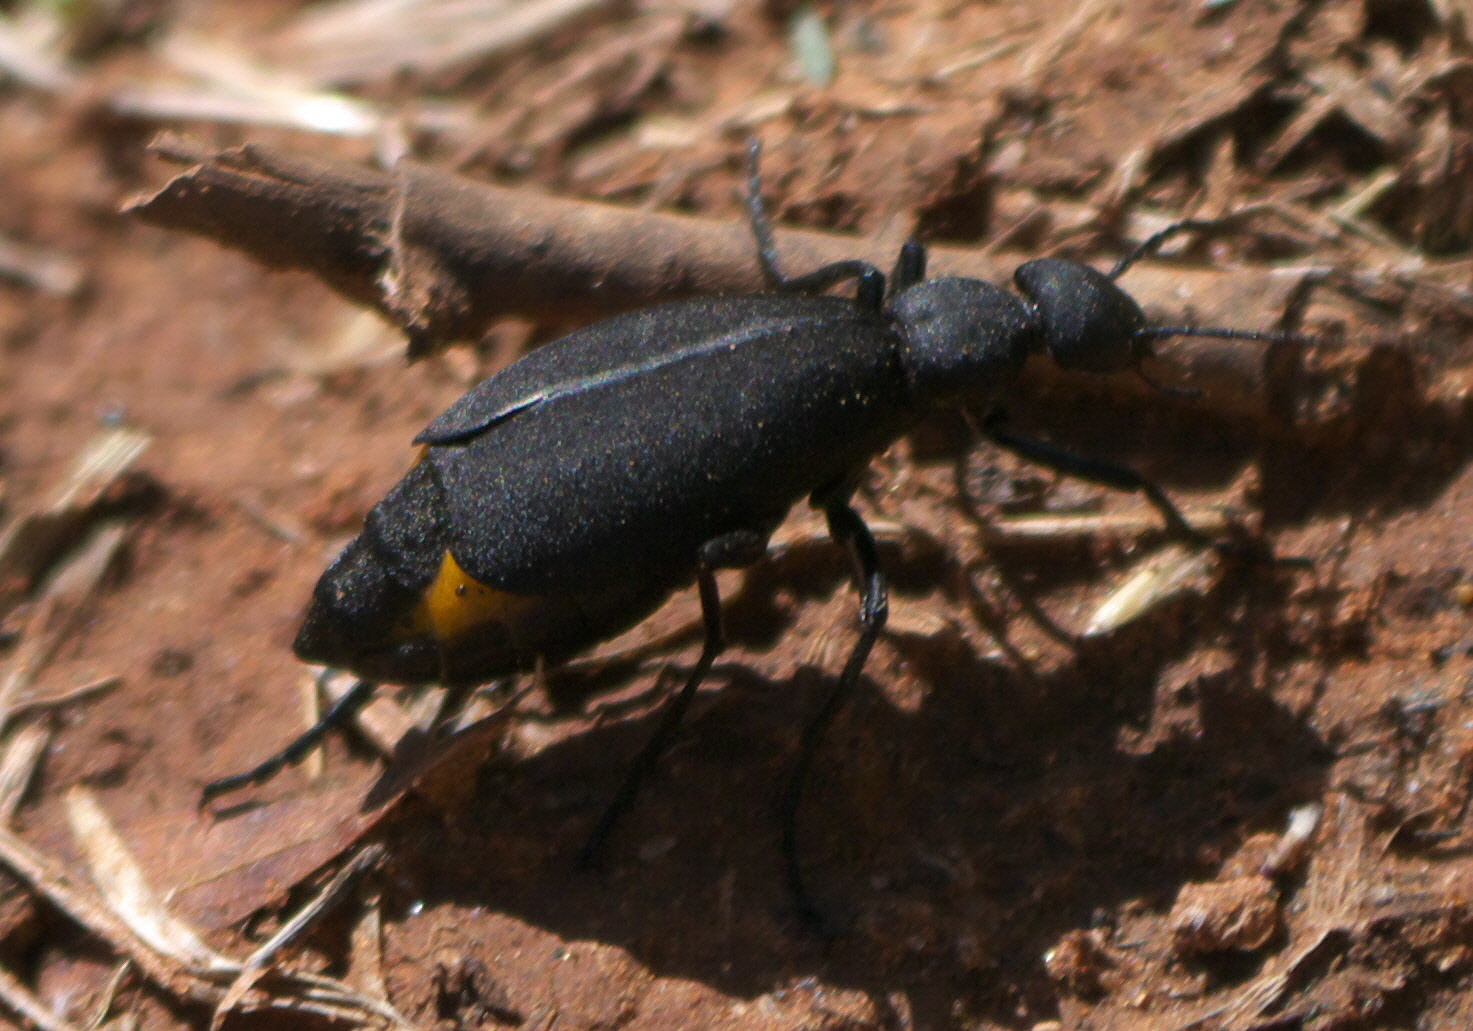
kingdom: Animalia
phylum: Arthropoda
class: Insecta
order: Coleoptera
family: Meloidae
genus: Epicauta
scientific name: Epicauta conferta
